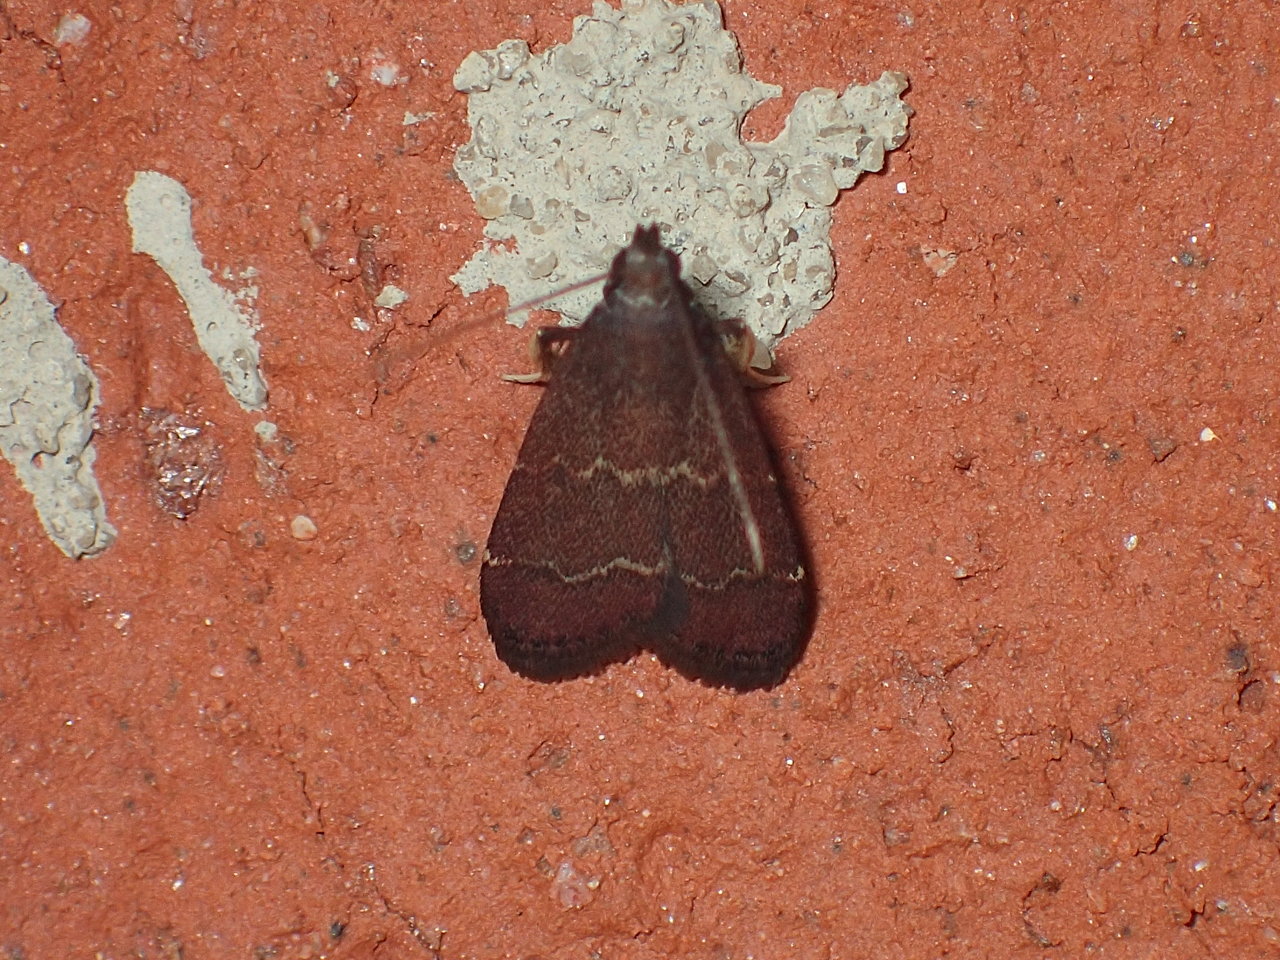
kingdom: Animalia
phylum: Arthropoda
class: Insecta
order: Lepidoptera
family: Pyralidae
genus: Arta
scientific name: Arta
